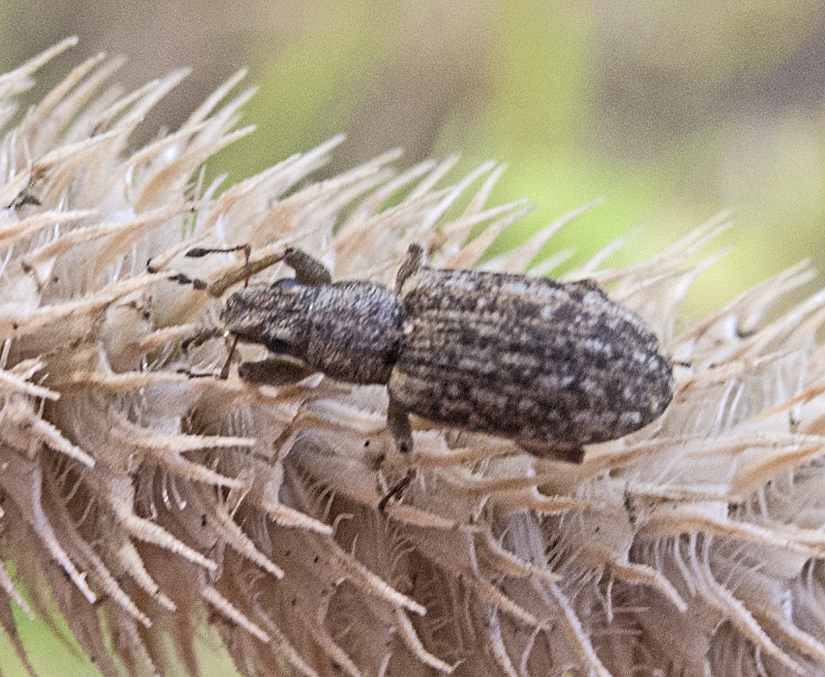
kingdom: Animalia
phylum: Arthropoda
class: Insecta
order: Coleoptera
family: Curculionidae
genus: Sitona
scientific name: Sitona cylindricollis
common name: Weevil
